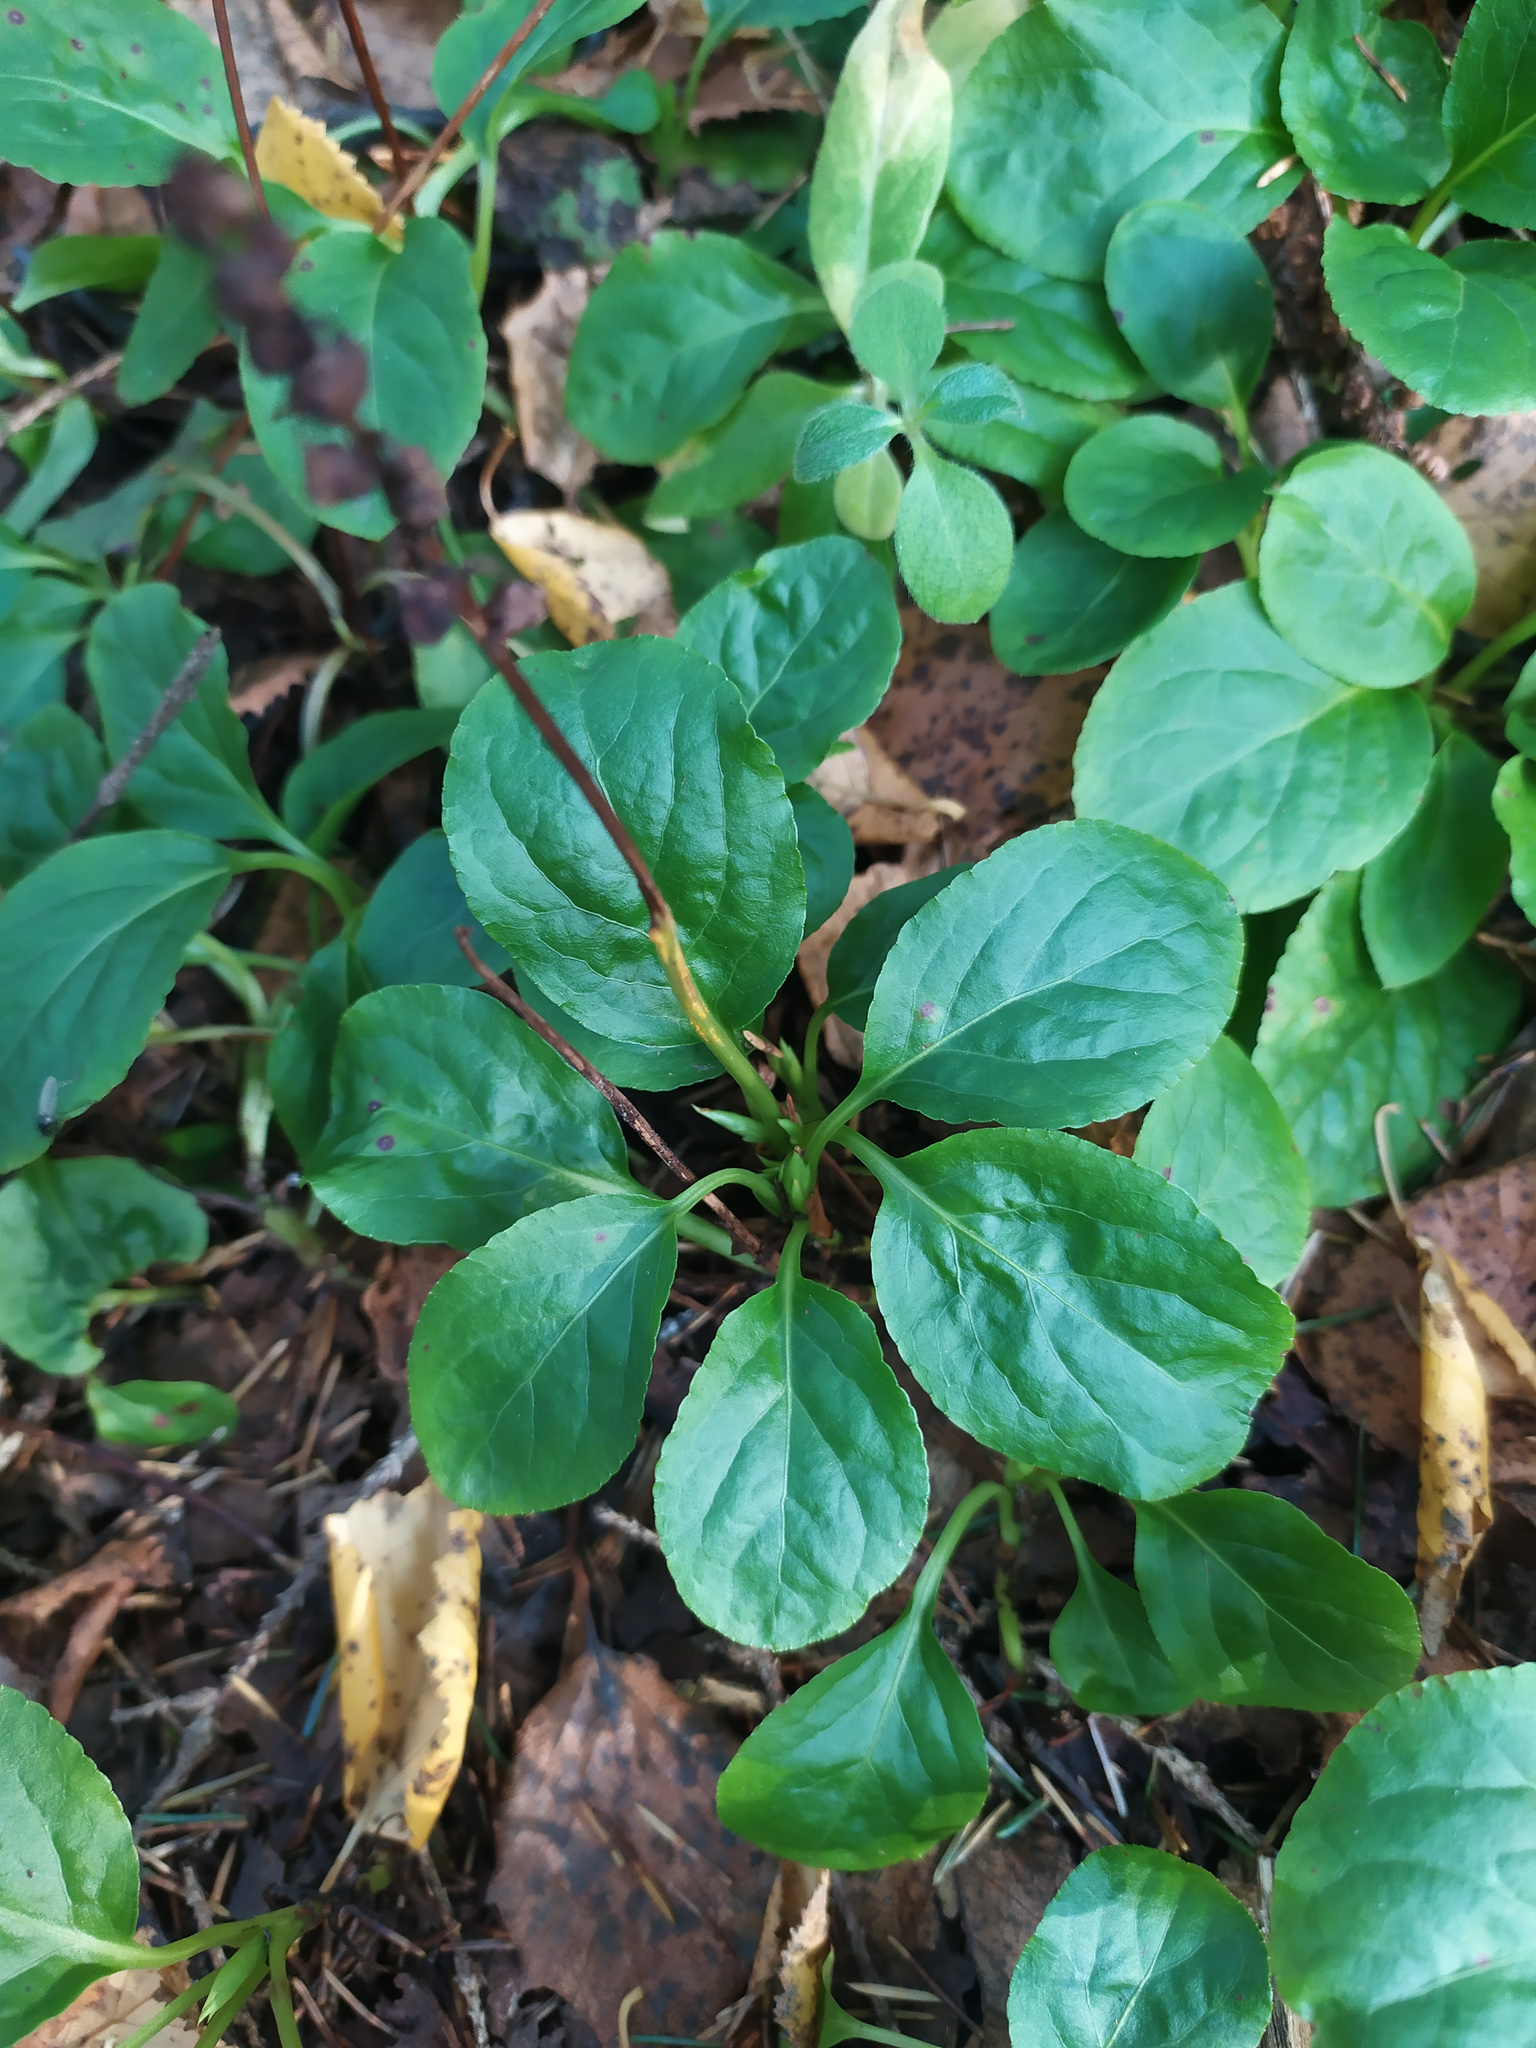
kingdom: Plantae
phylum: Tracheophyta
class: Magnoliopsida
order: Ericales
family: Ericaceae
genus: Orthilia
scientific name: Orthilia secunda
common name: One-sided orthilia
